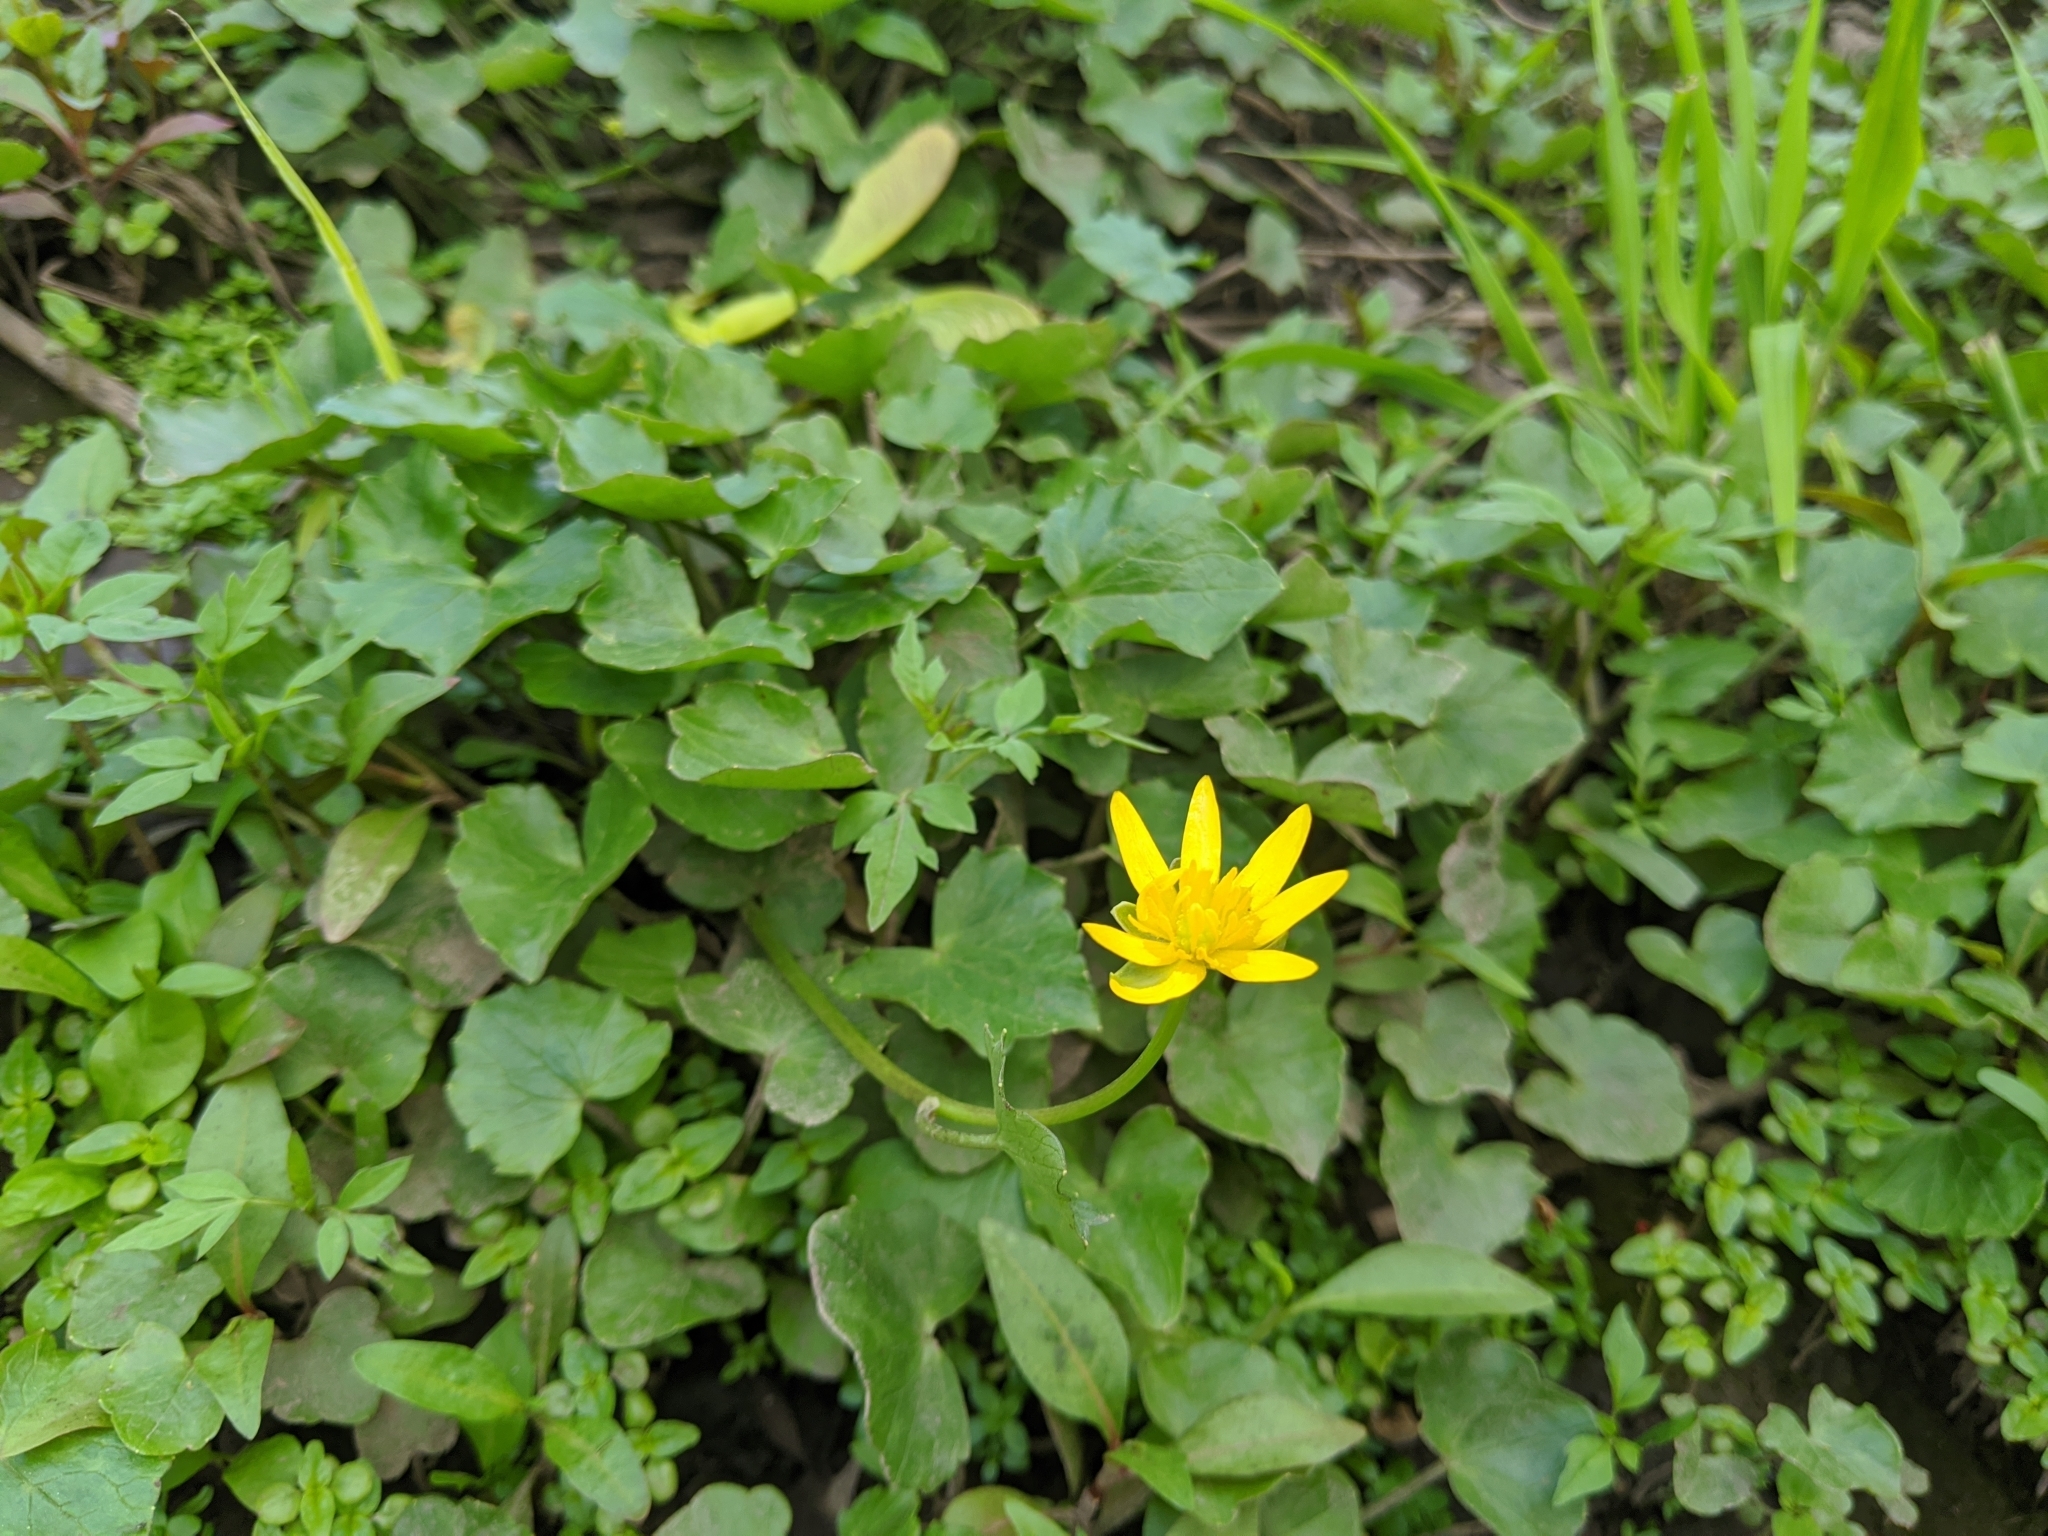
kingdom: Plantae
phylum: Tracheophyta
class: Magnoliopsida
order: Ranunculales
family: Ranunculaceae
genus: Ficaria
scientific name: Ficaria verna
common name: Lesser celandine
